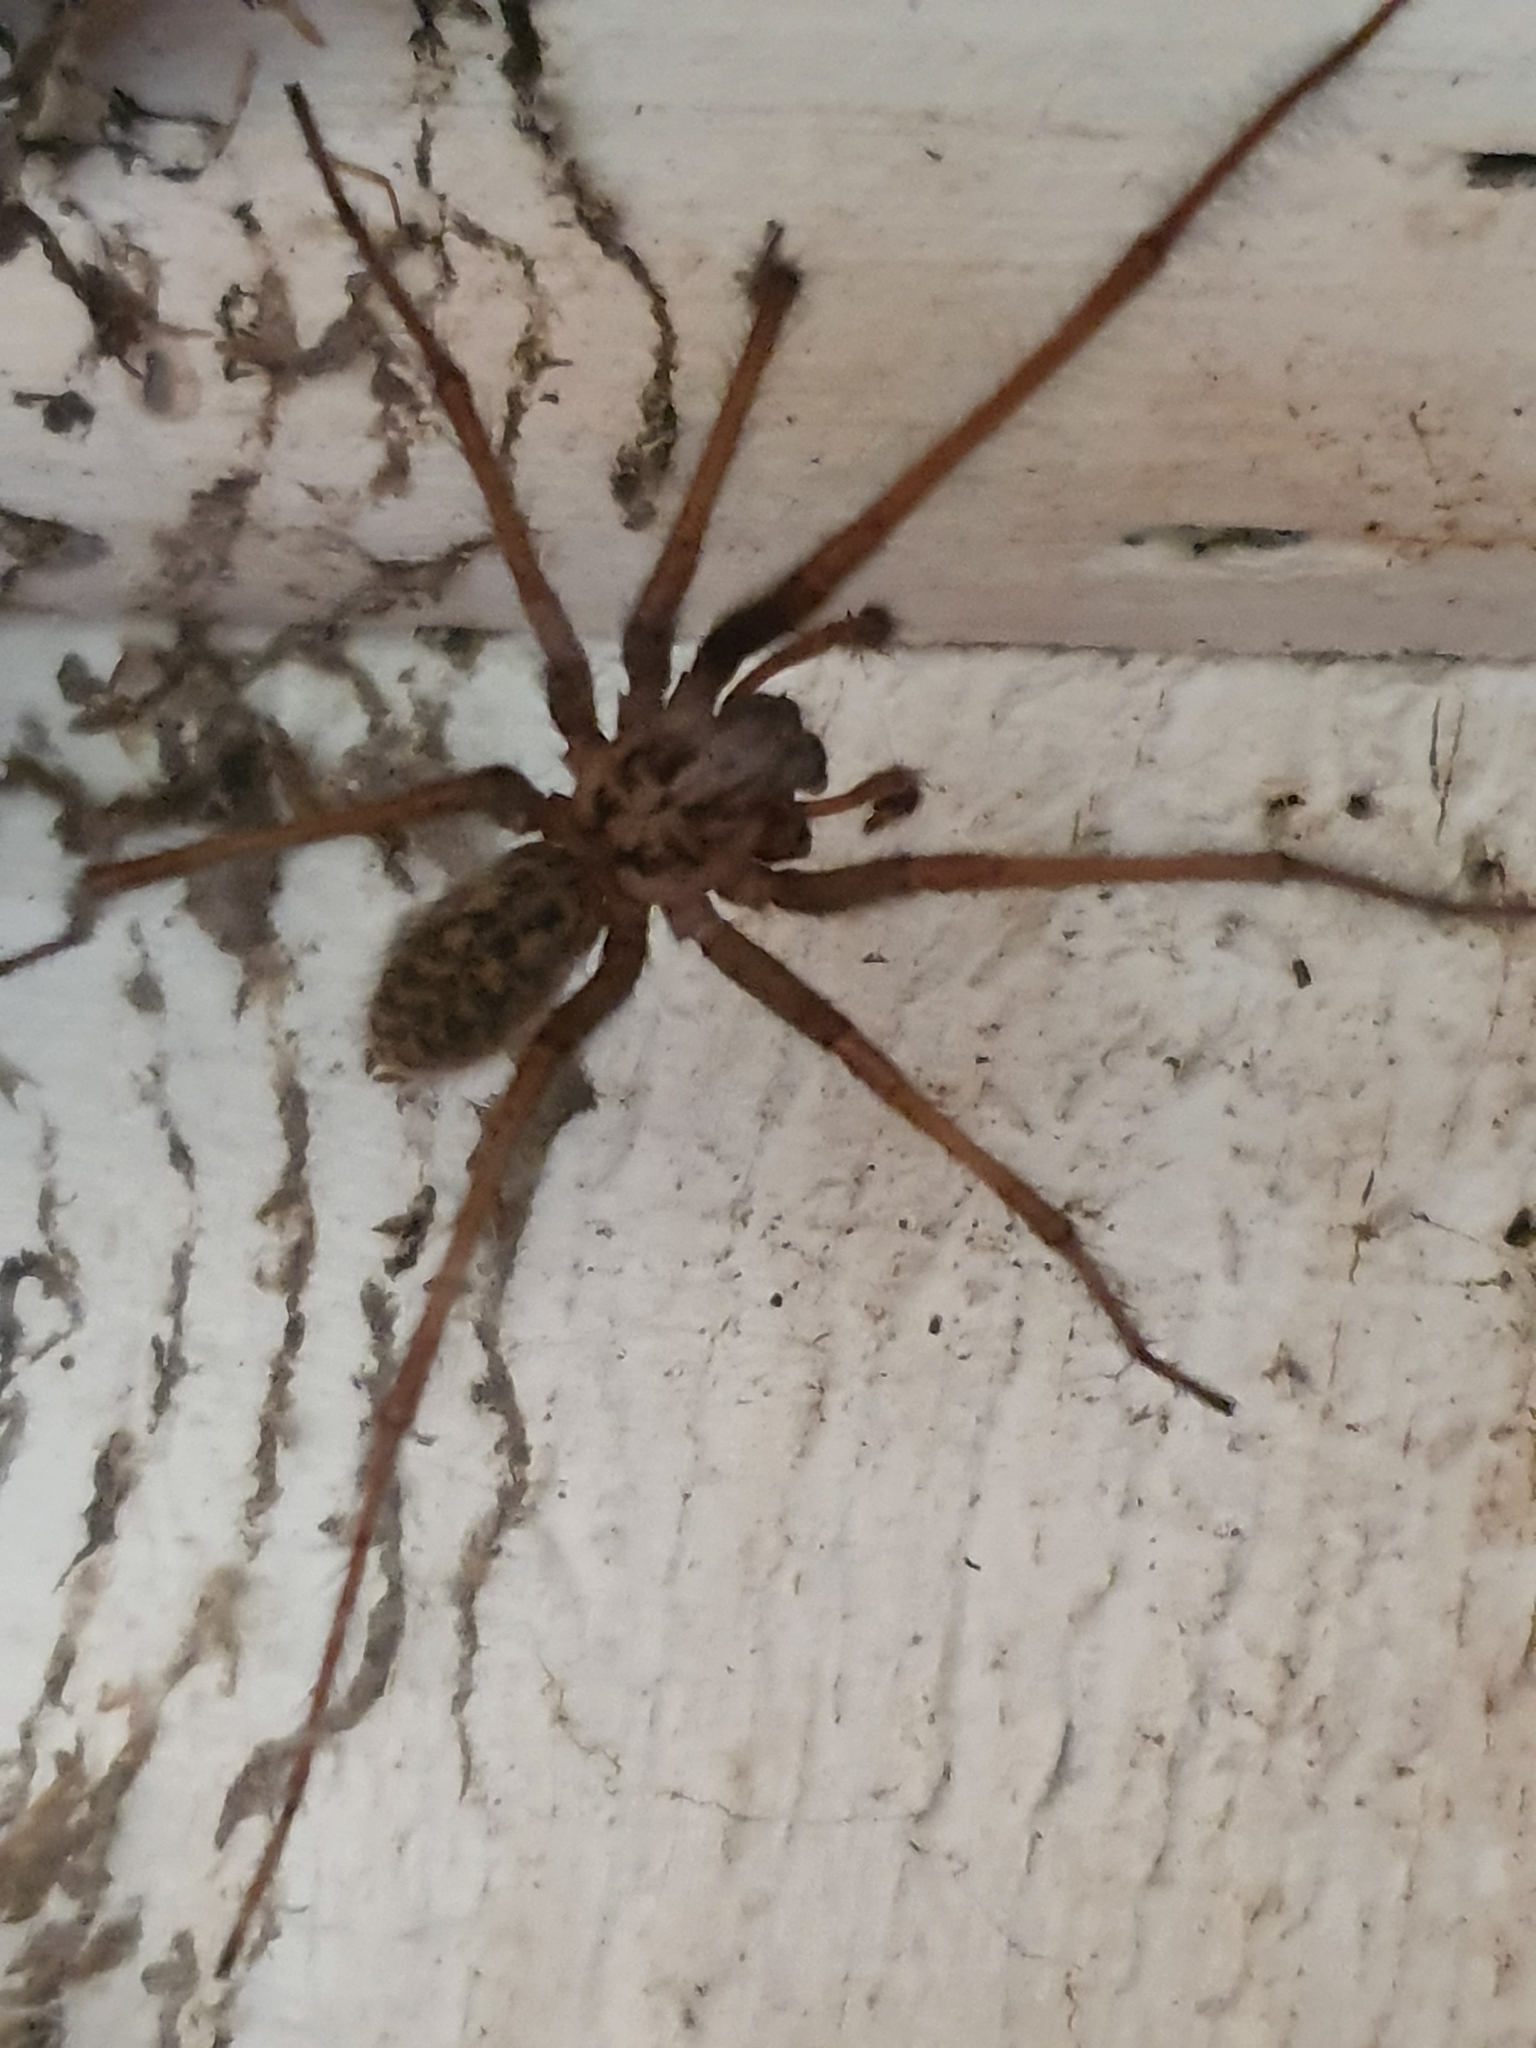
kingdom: Animalia
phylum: Arthropoda
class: Arachnida
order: Araneae
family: Agelenidae
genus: Eratigena
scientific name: Eratigena atrica
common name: Giant house spider
